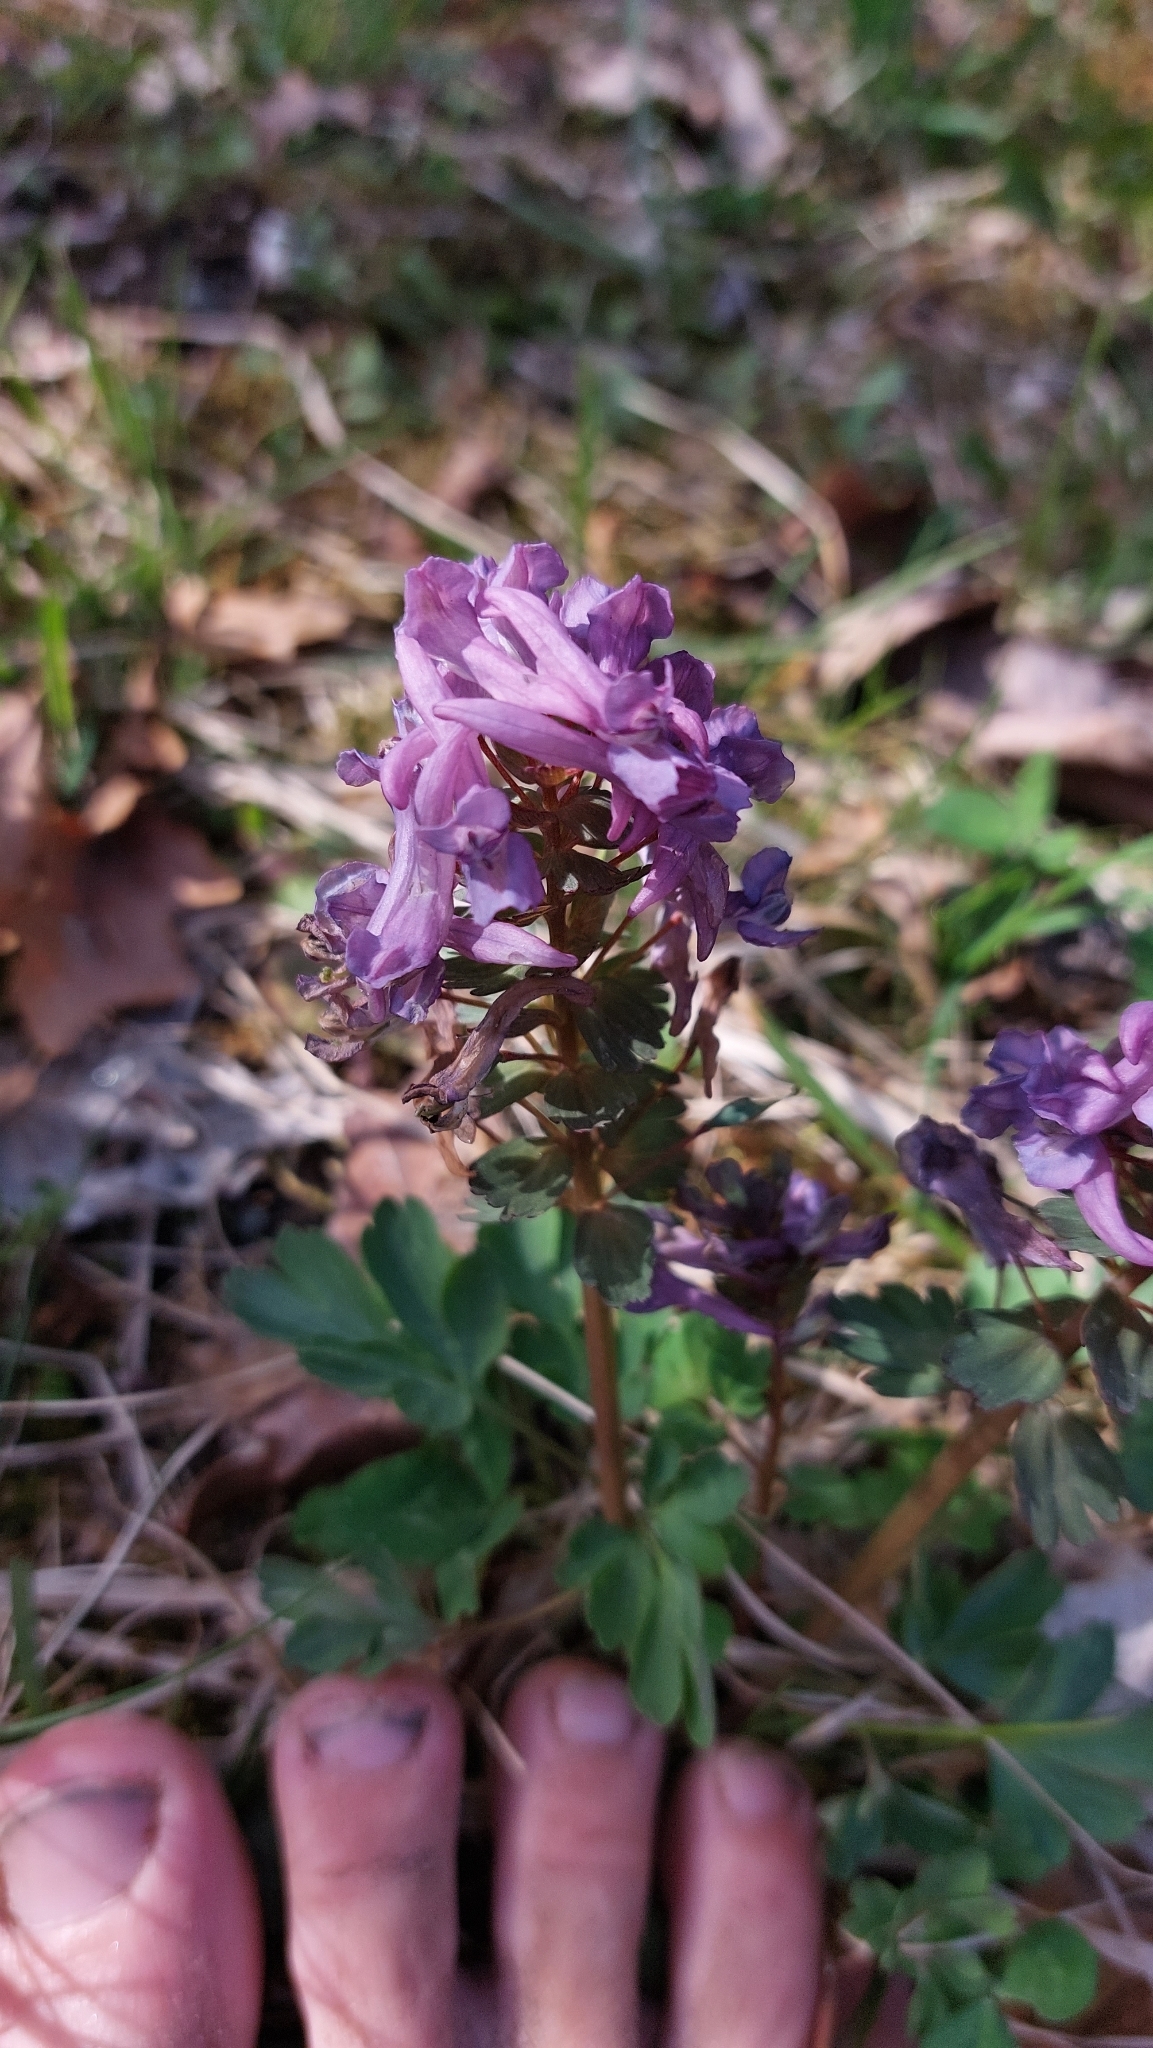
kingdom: Plantae
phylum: Tracheophyta
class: Magnoliopsida
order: Ranunculales
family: Papaveraceae
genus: Corydalis
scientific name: Corydalis solida
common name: Bird-in-a-bush
